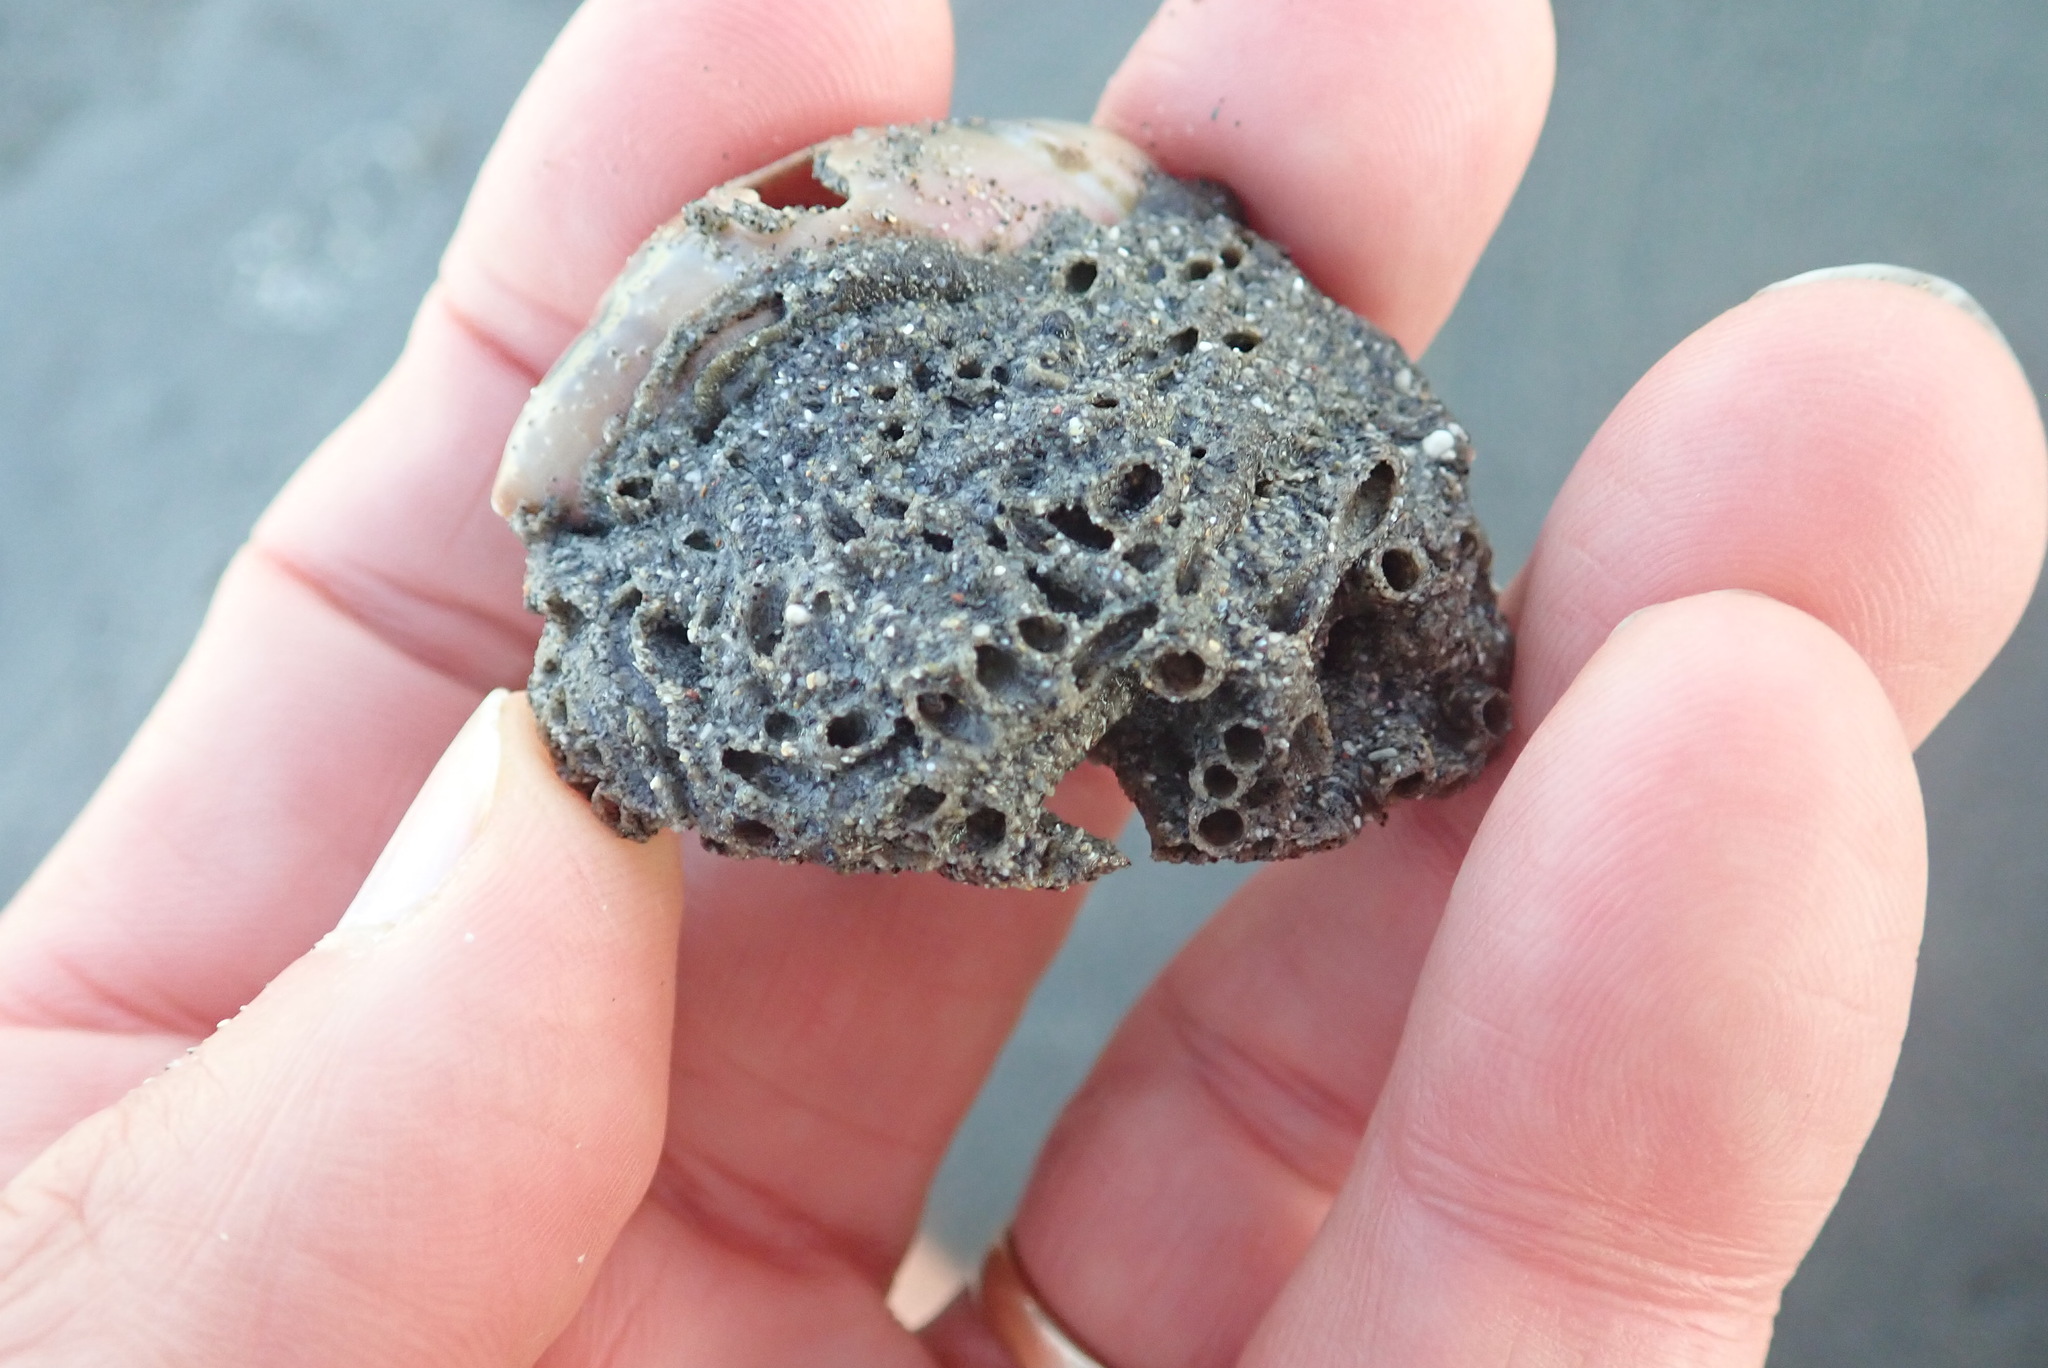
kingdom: Animalia
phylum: Annelida
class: Polychaeta
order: Sabellida
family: Sabellariidae
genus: Neosabellaria
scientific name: Neosabellaria kaiparaensis
